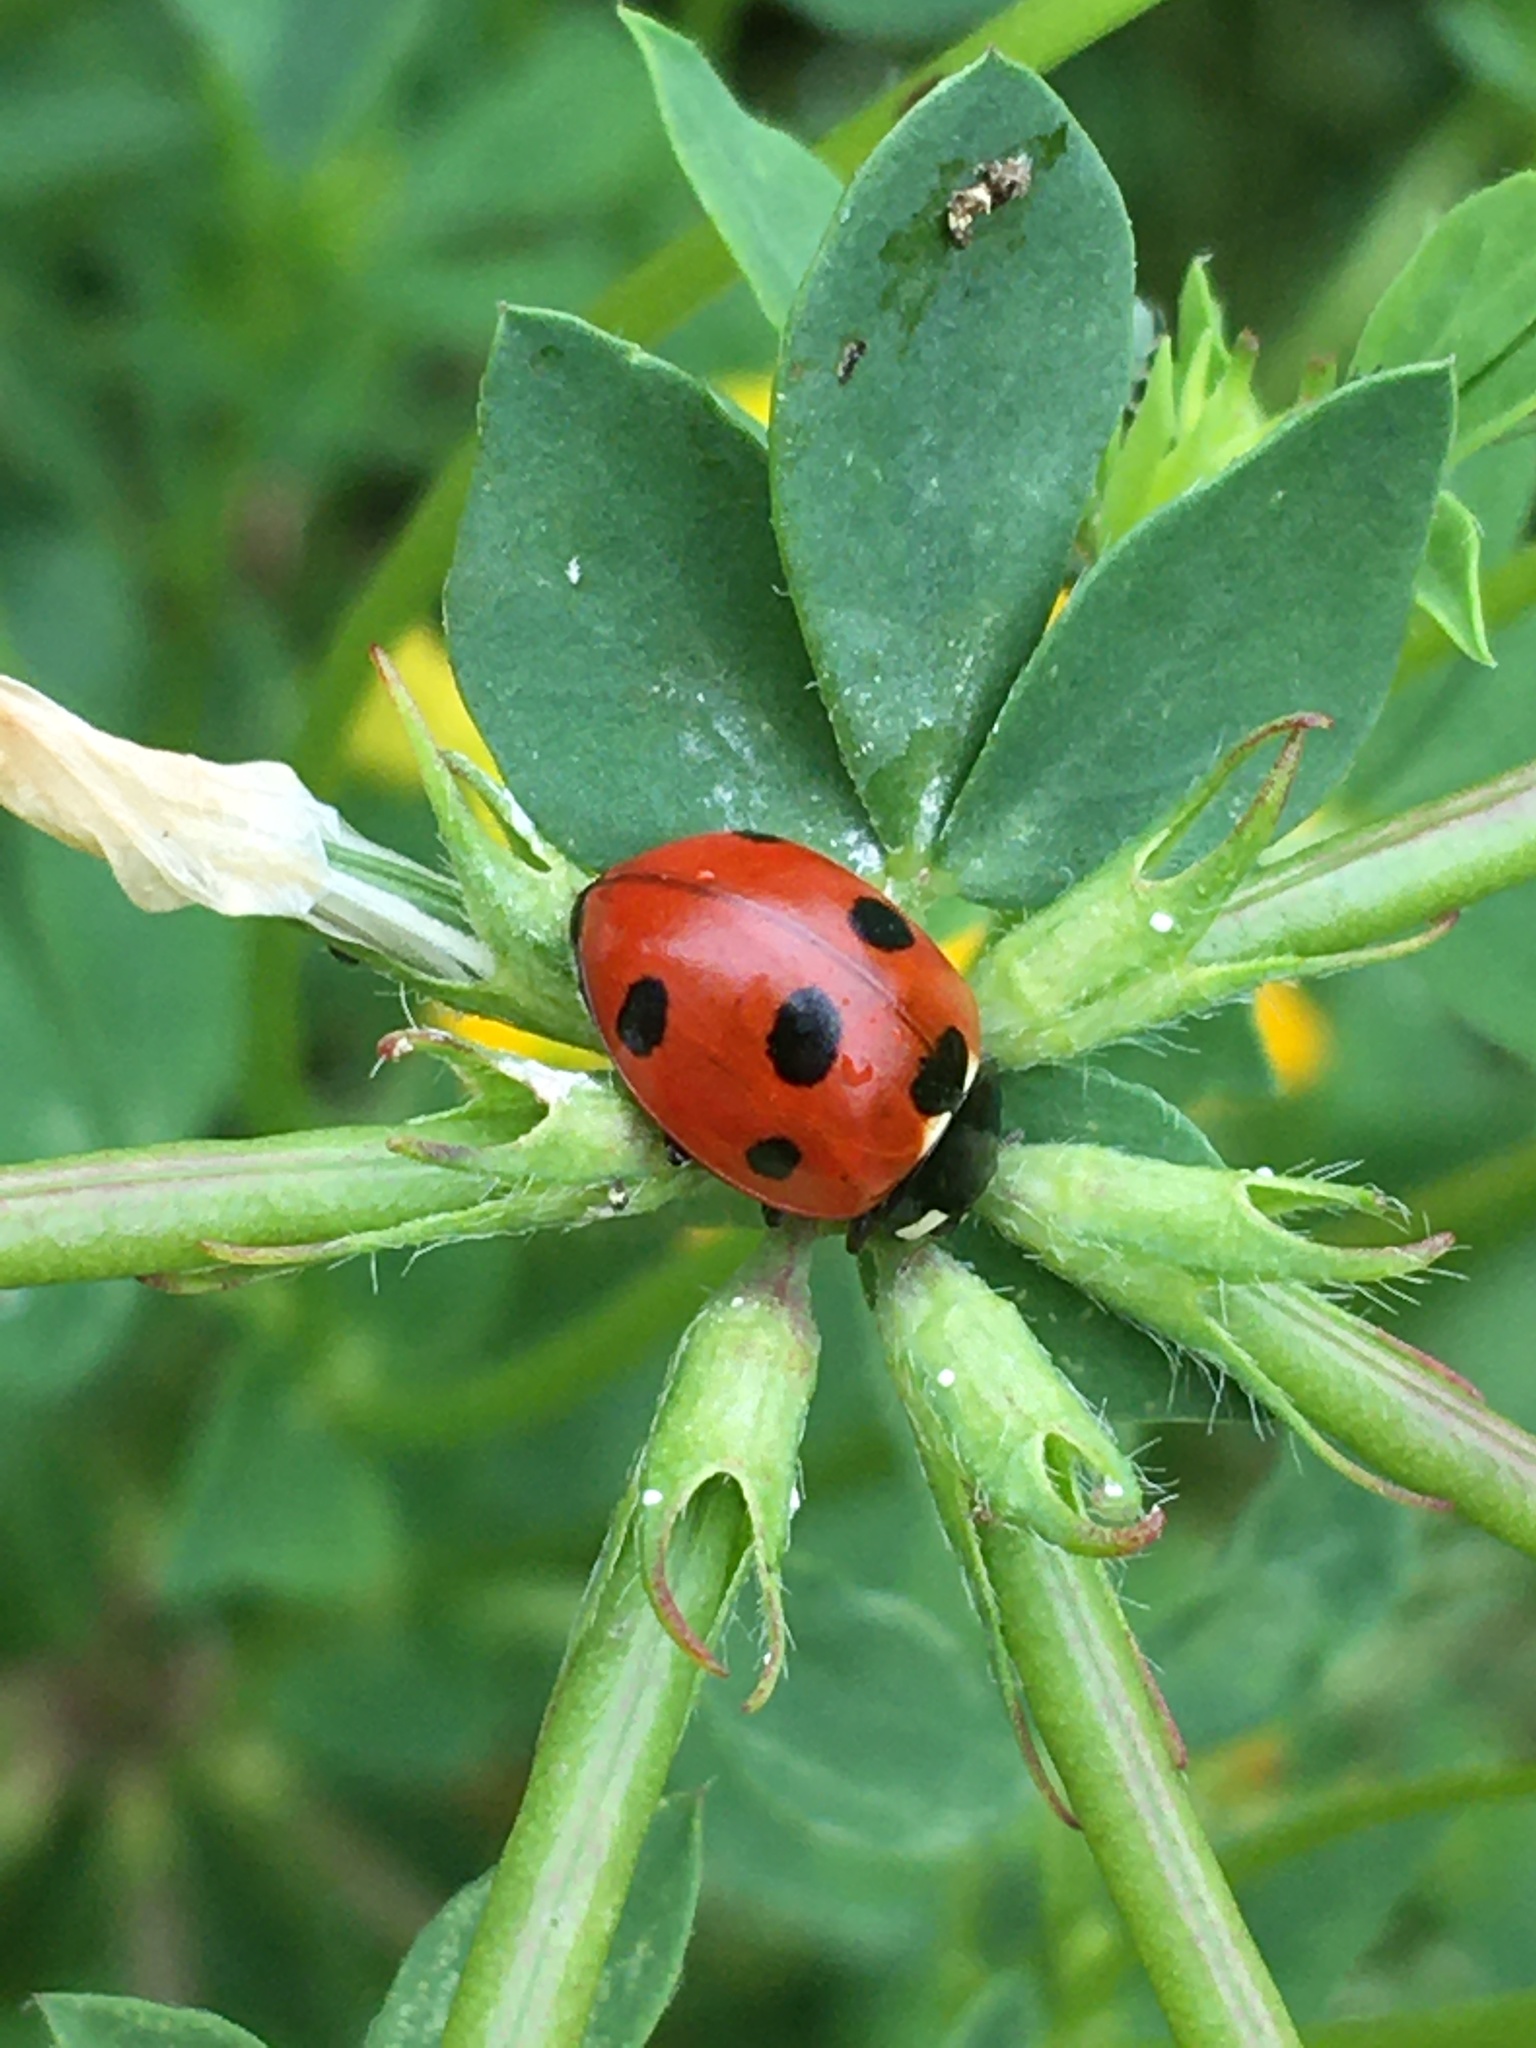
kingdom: Animalia
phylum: Arthropoda
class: Insecta
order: Coleoptera
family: Coccinellidae
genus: Coccinella
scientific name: Coccinella septempunctata
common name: Sevenspotted lady beetle
